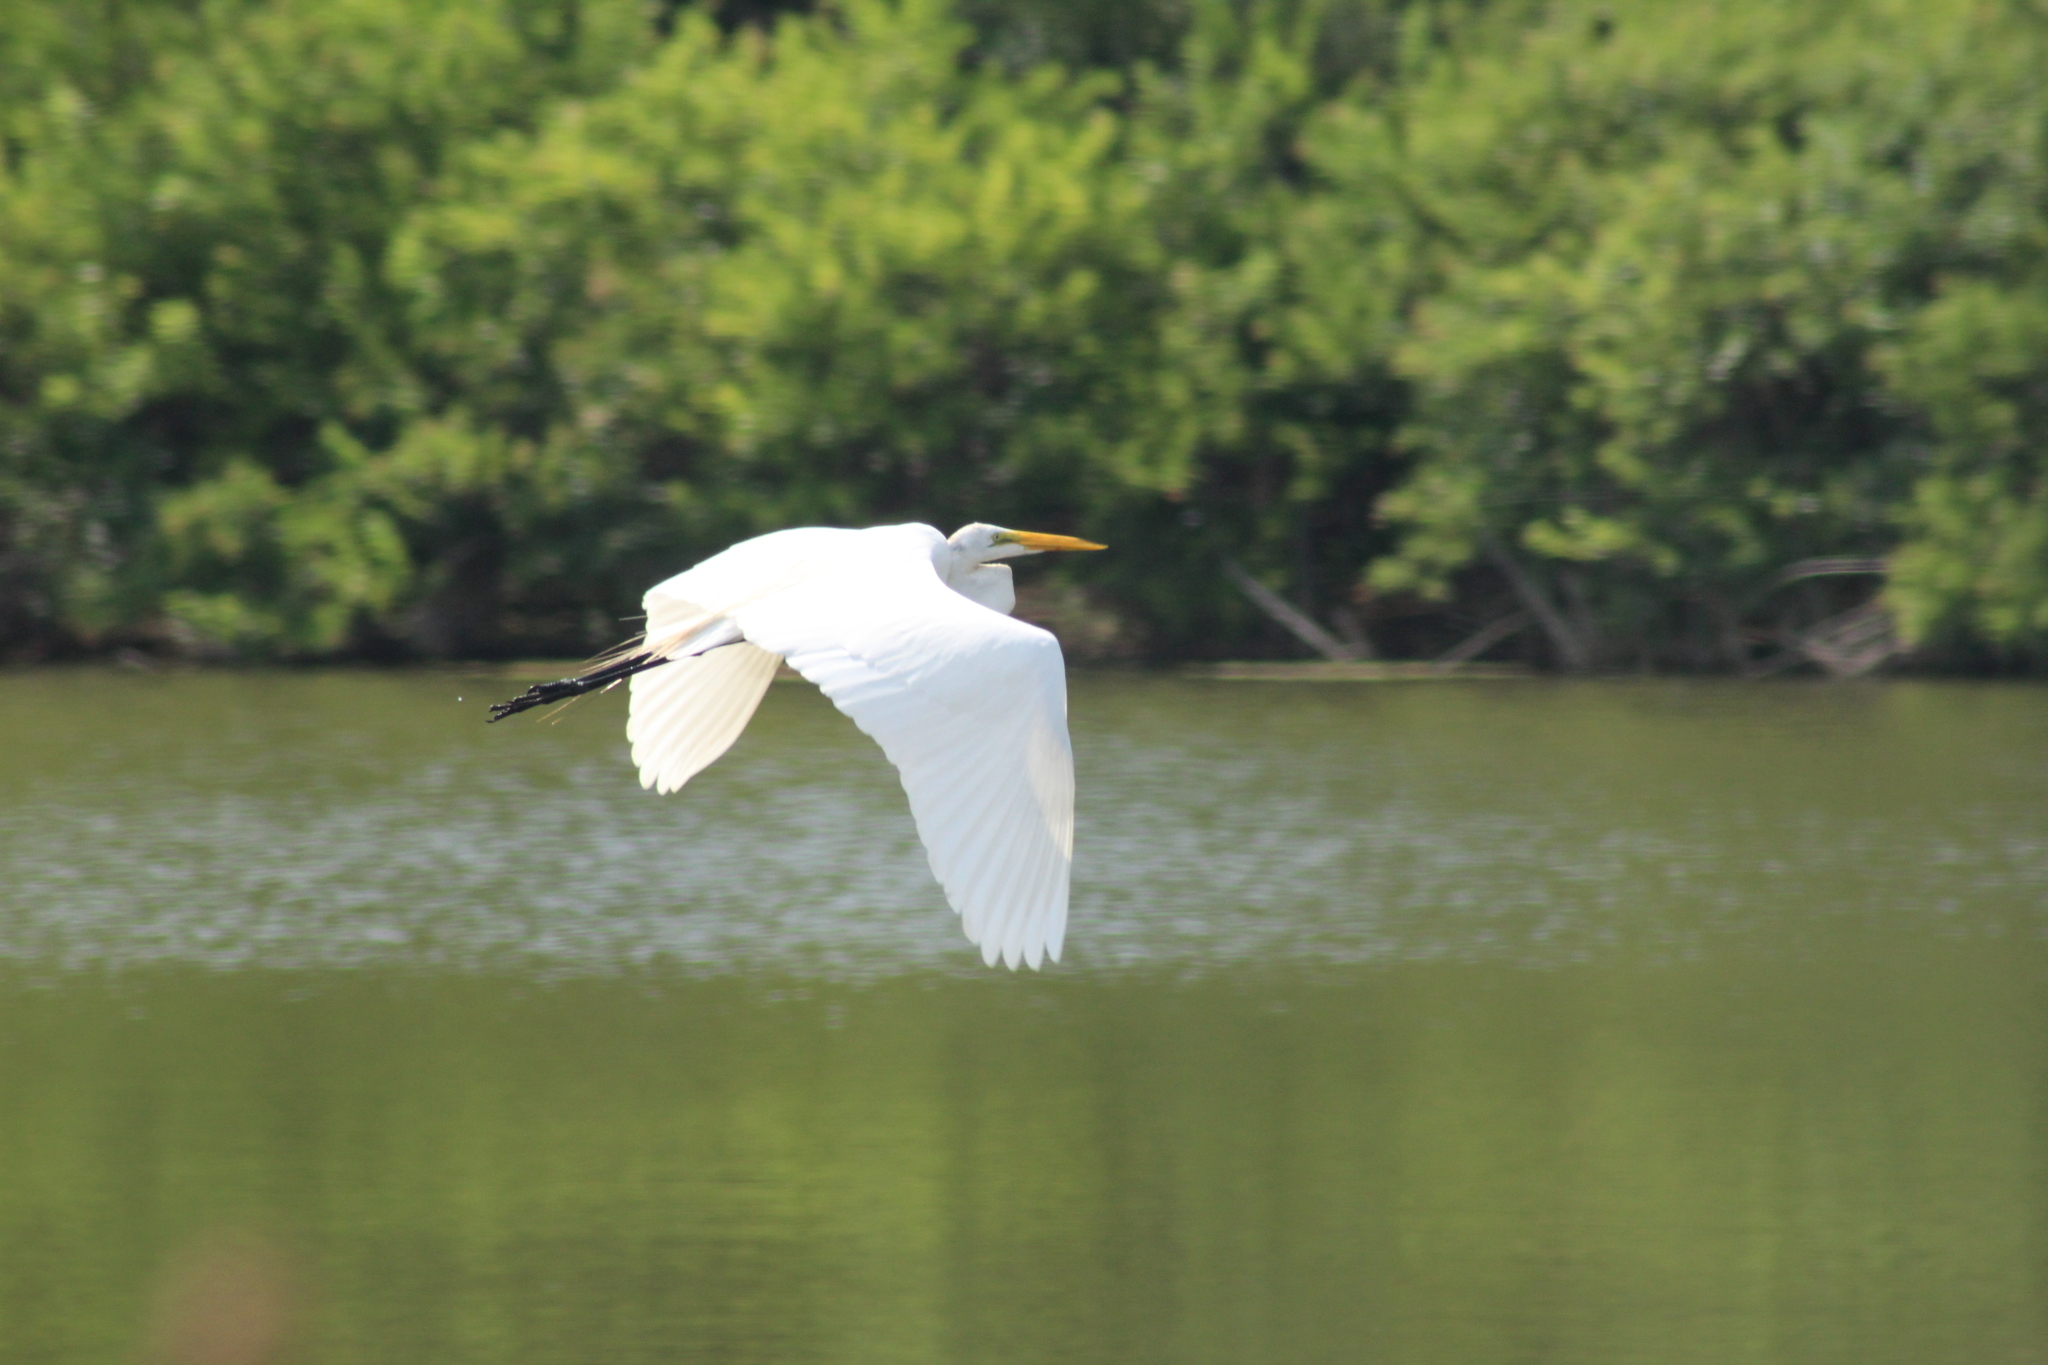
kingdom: Animalia
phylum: Chordata
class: Aves
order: Pelecaniformes
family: Ardeidae
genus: Ardea
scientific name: Ardea alba
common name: Great egret
